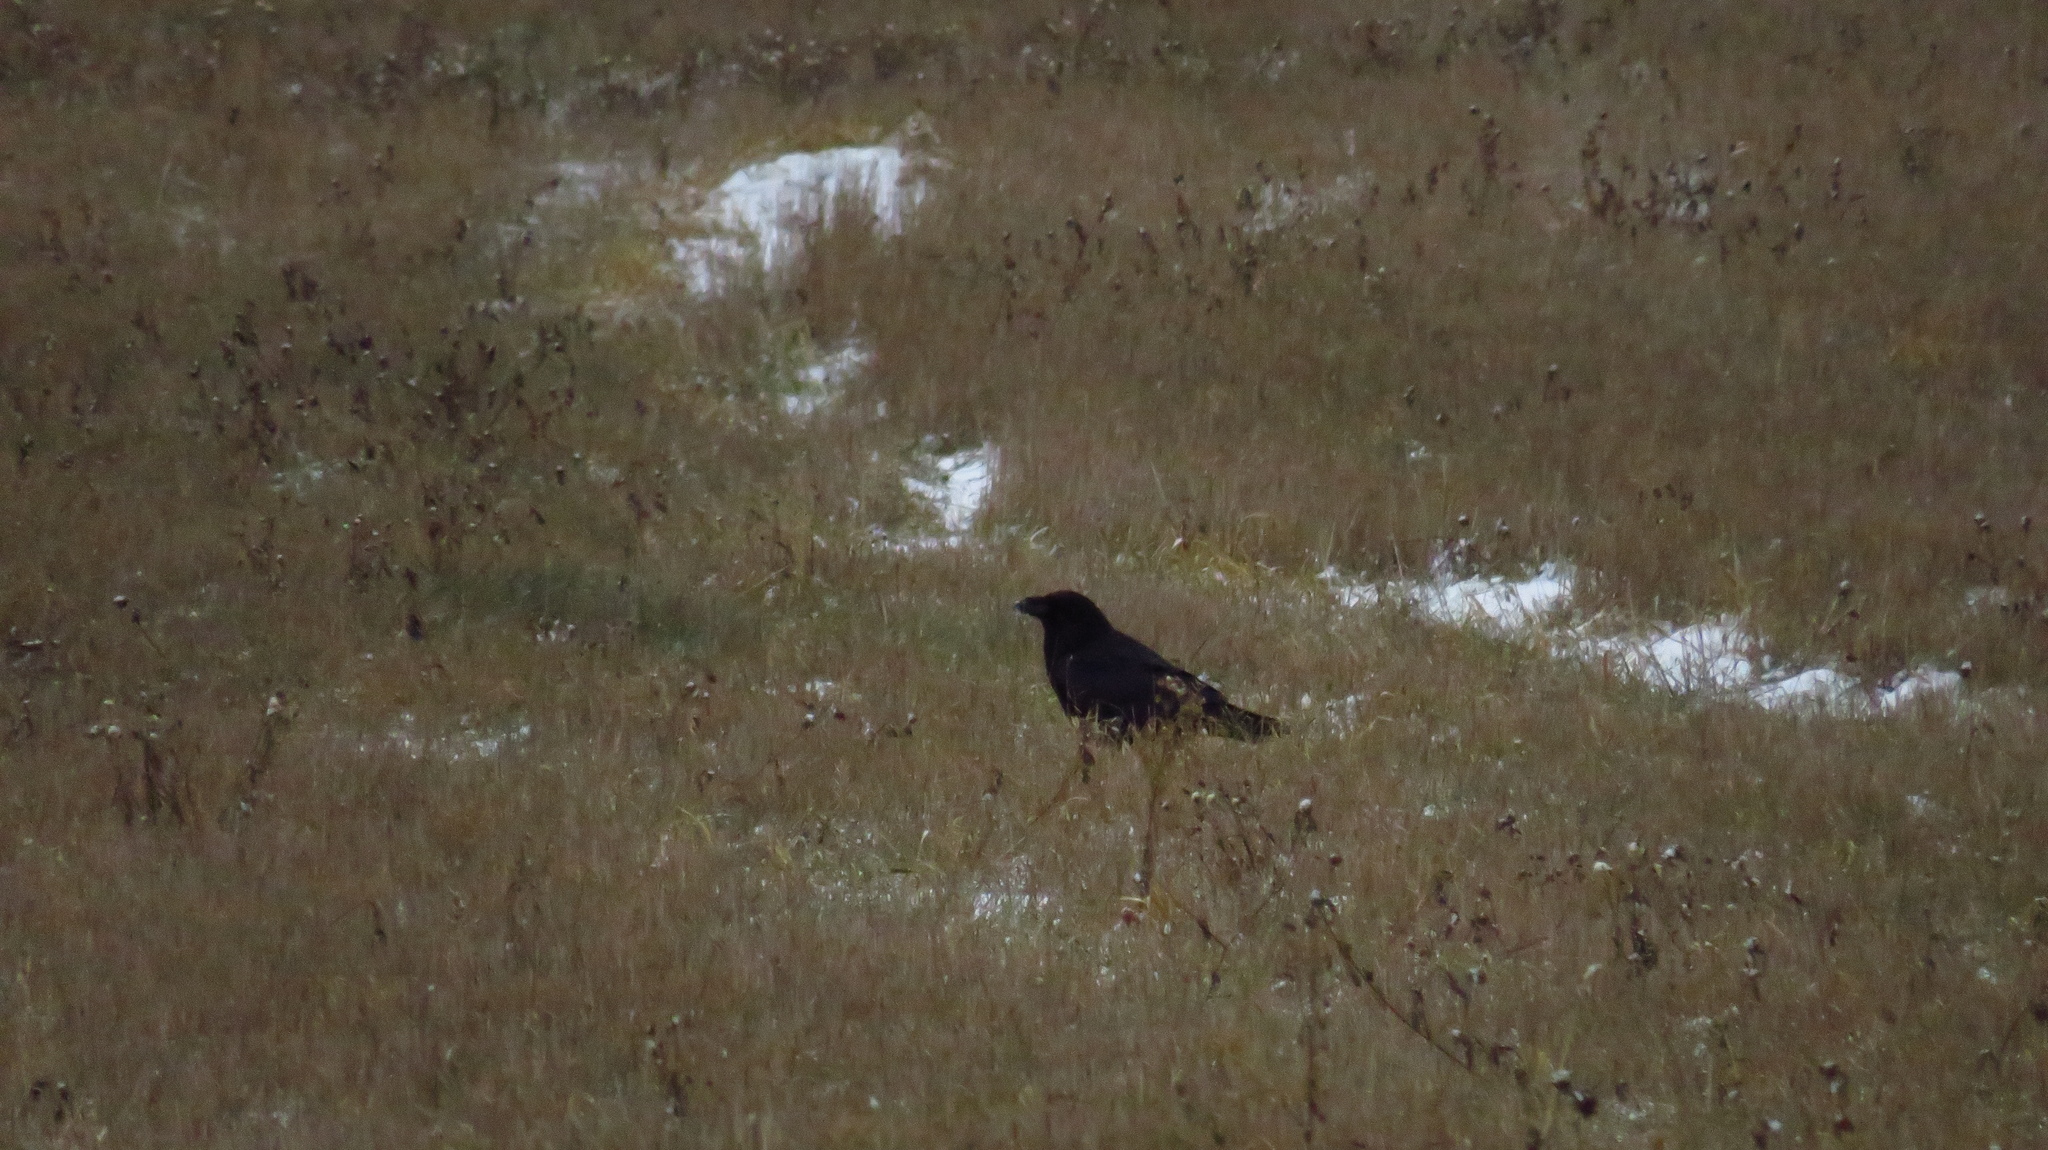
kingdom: Animalia
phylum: Chordata
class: Aves
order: Passeriformes
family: Corvidae
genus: Corvus
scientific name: Corvus corax
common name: Common raven
